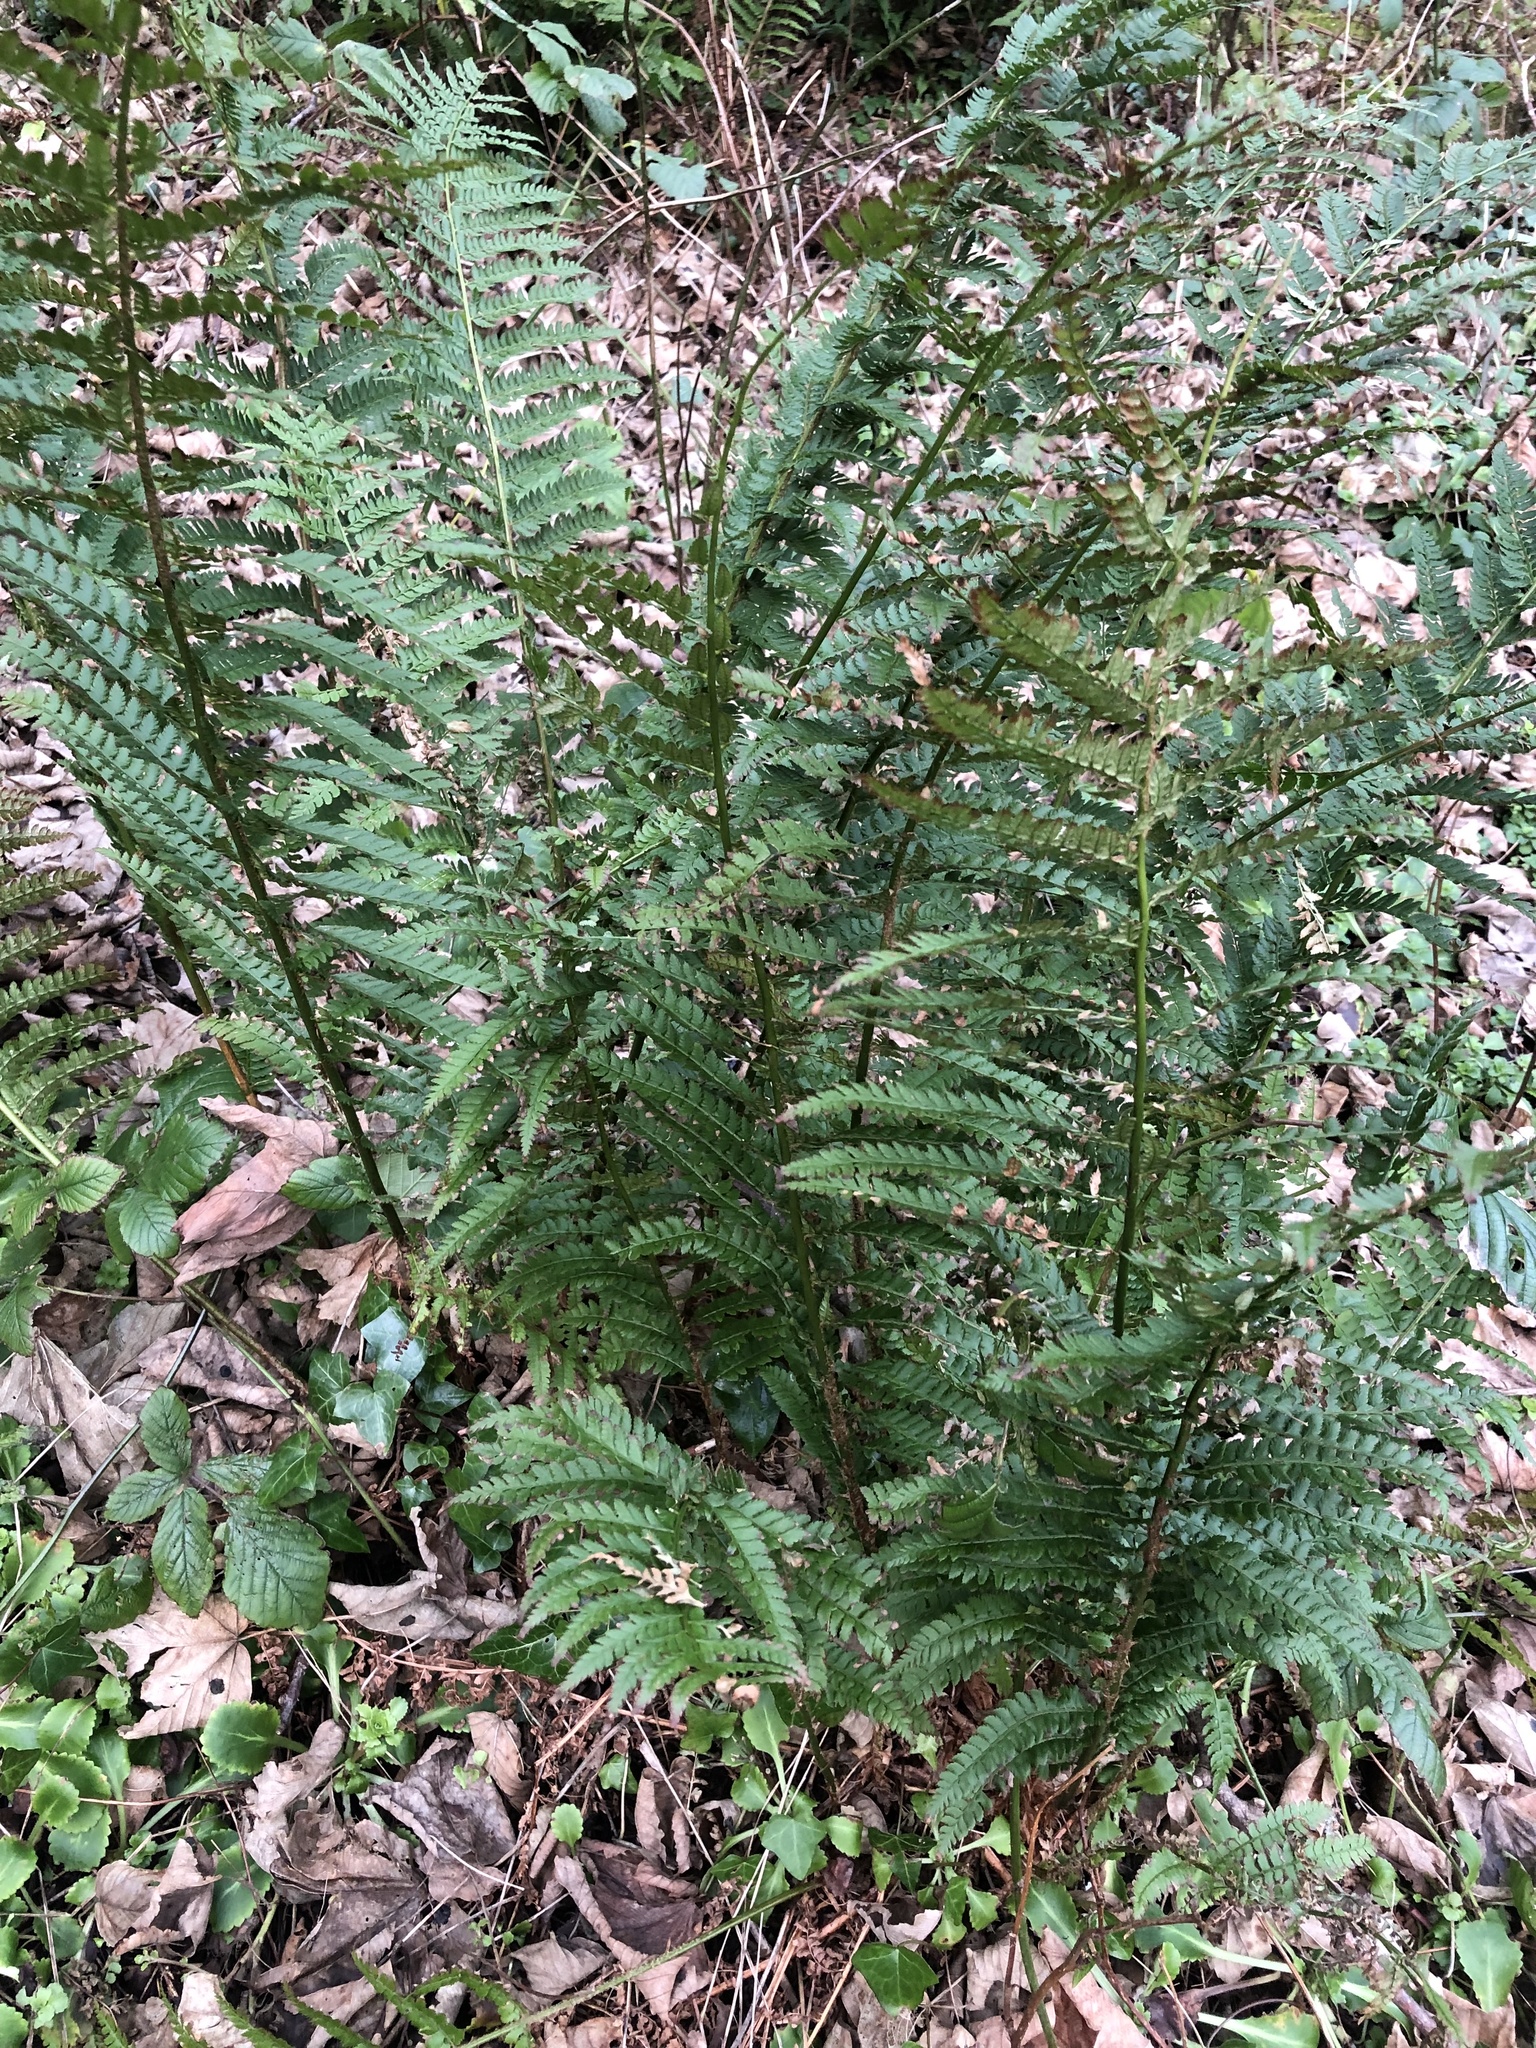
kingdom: Plantae
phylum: Tracheophyta
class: Polypodiopsida
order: Polypodiales
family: Dryopteridaceae
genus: Polystichum
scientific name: Polystichum setiferum
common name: Soft shield-fern
